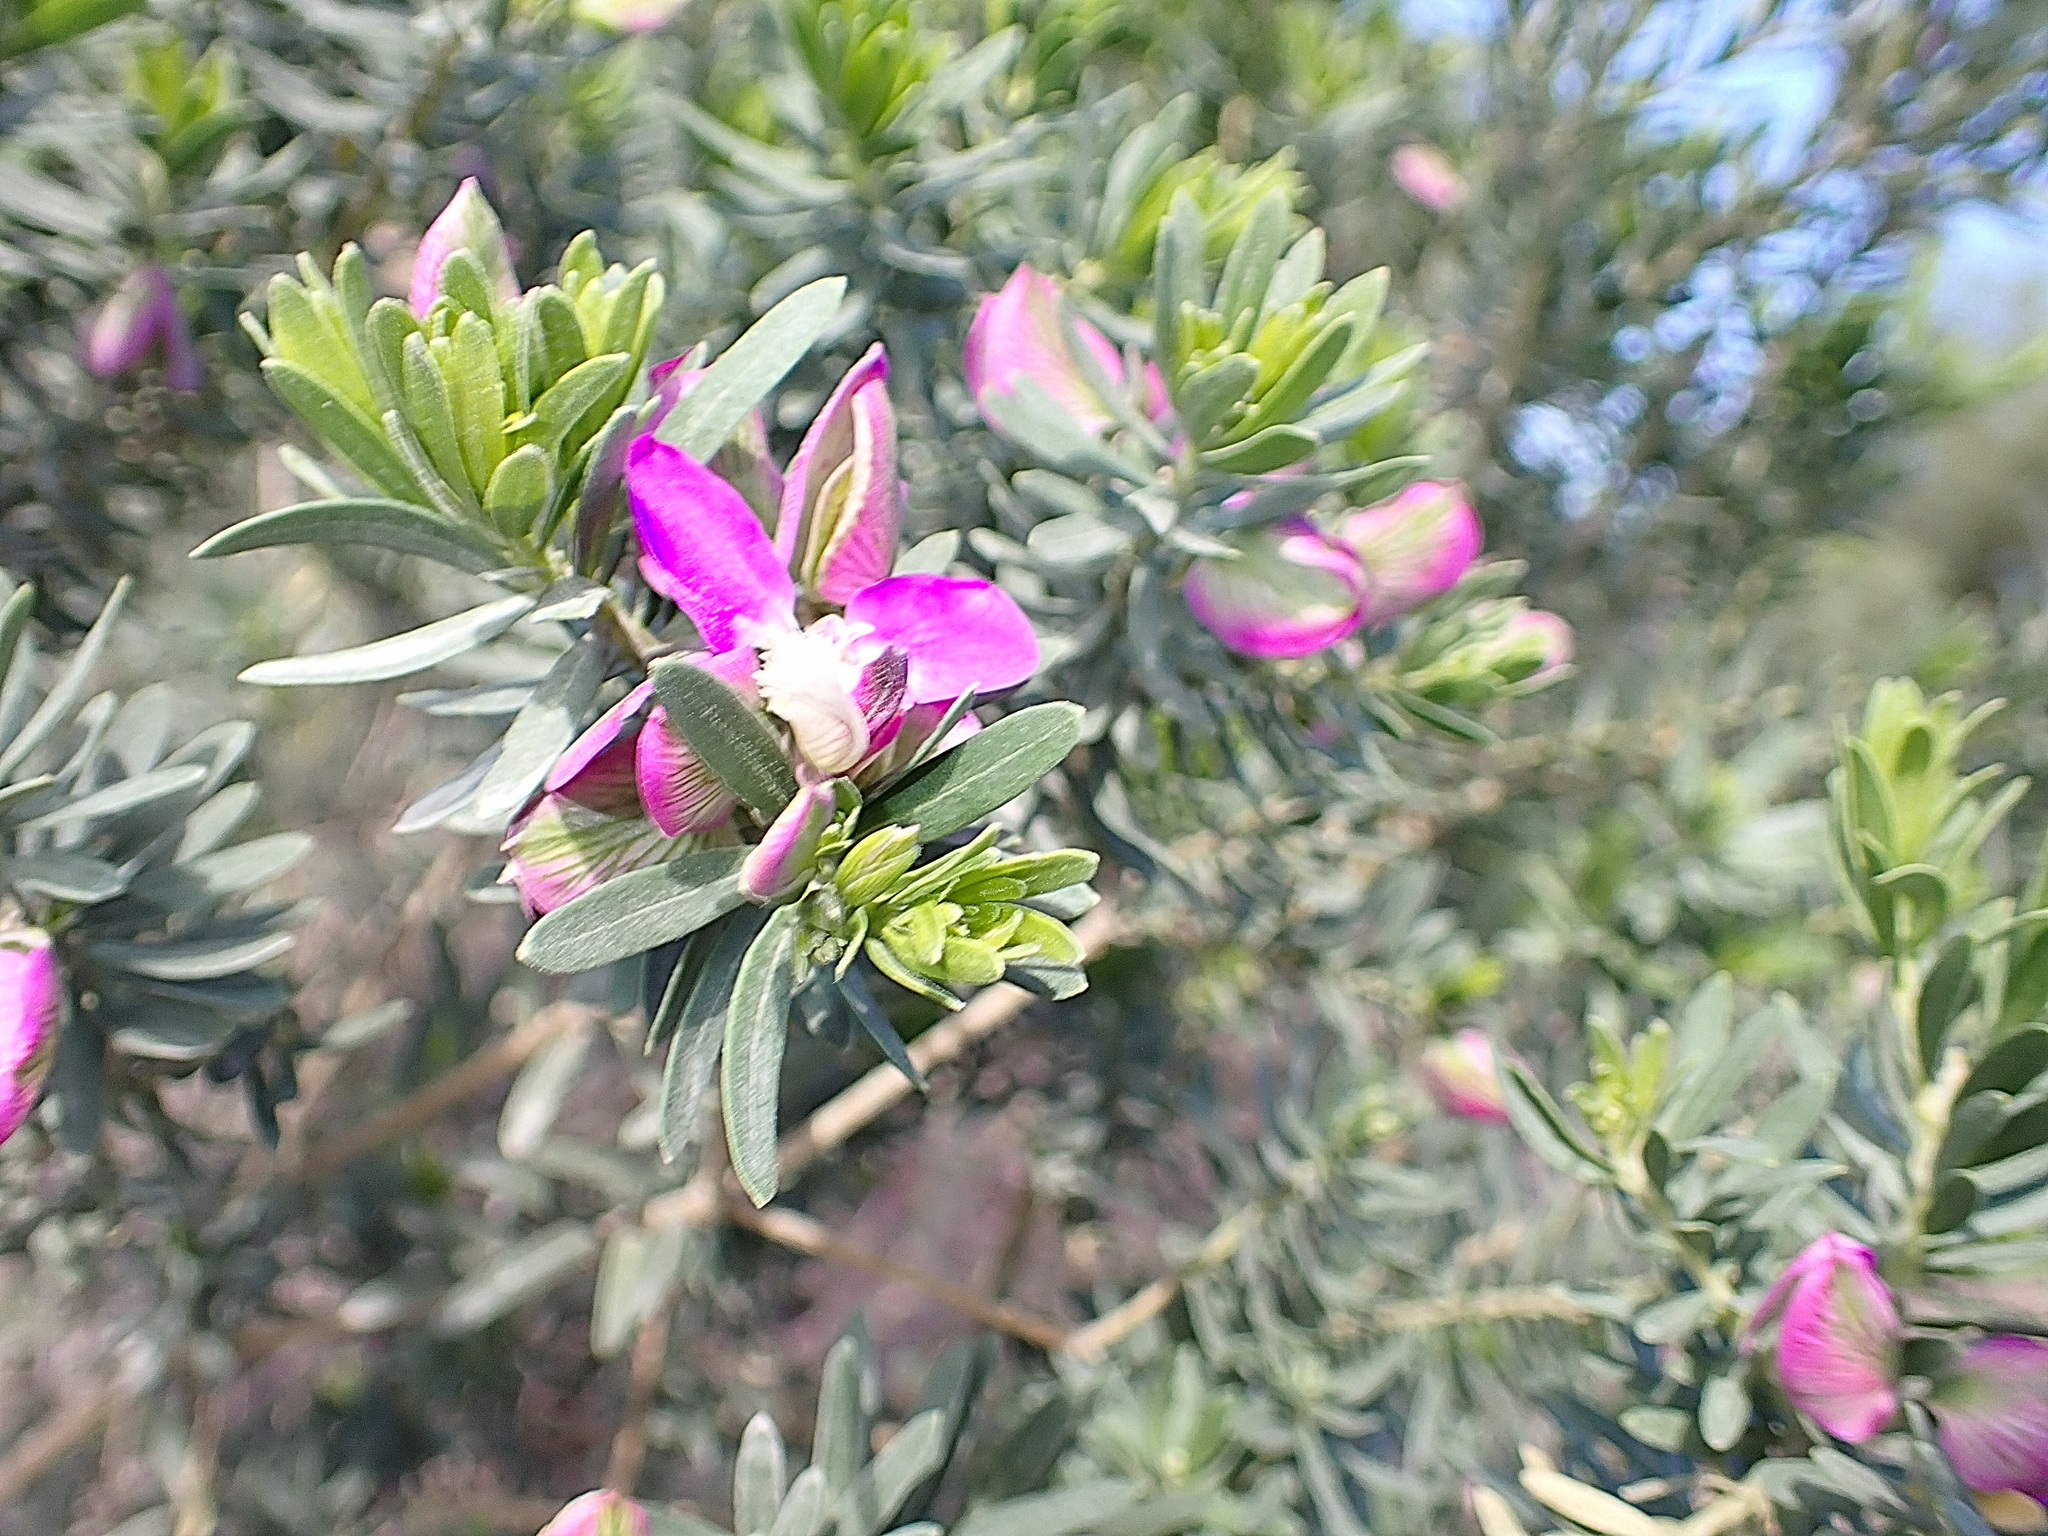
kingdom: Plantae
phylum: Tracheophyta
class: Magnoliopsida
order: Fabales
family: Polygalaceae
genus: Polygala
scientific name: Polygala myrtifolia
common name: Myrtle-leaf milkwort
